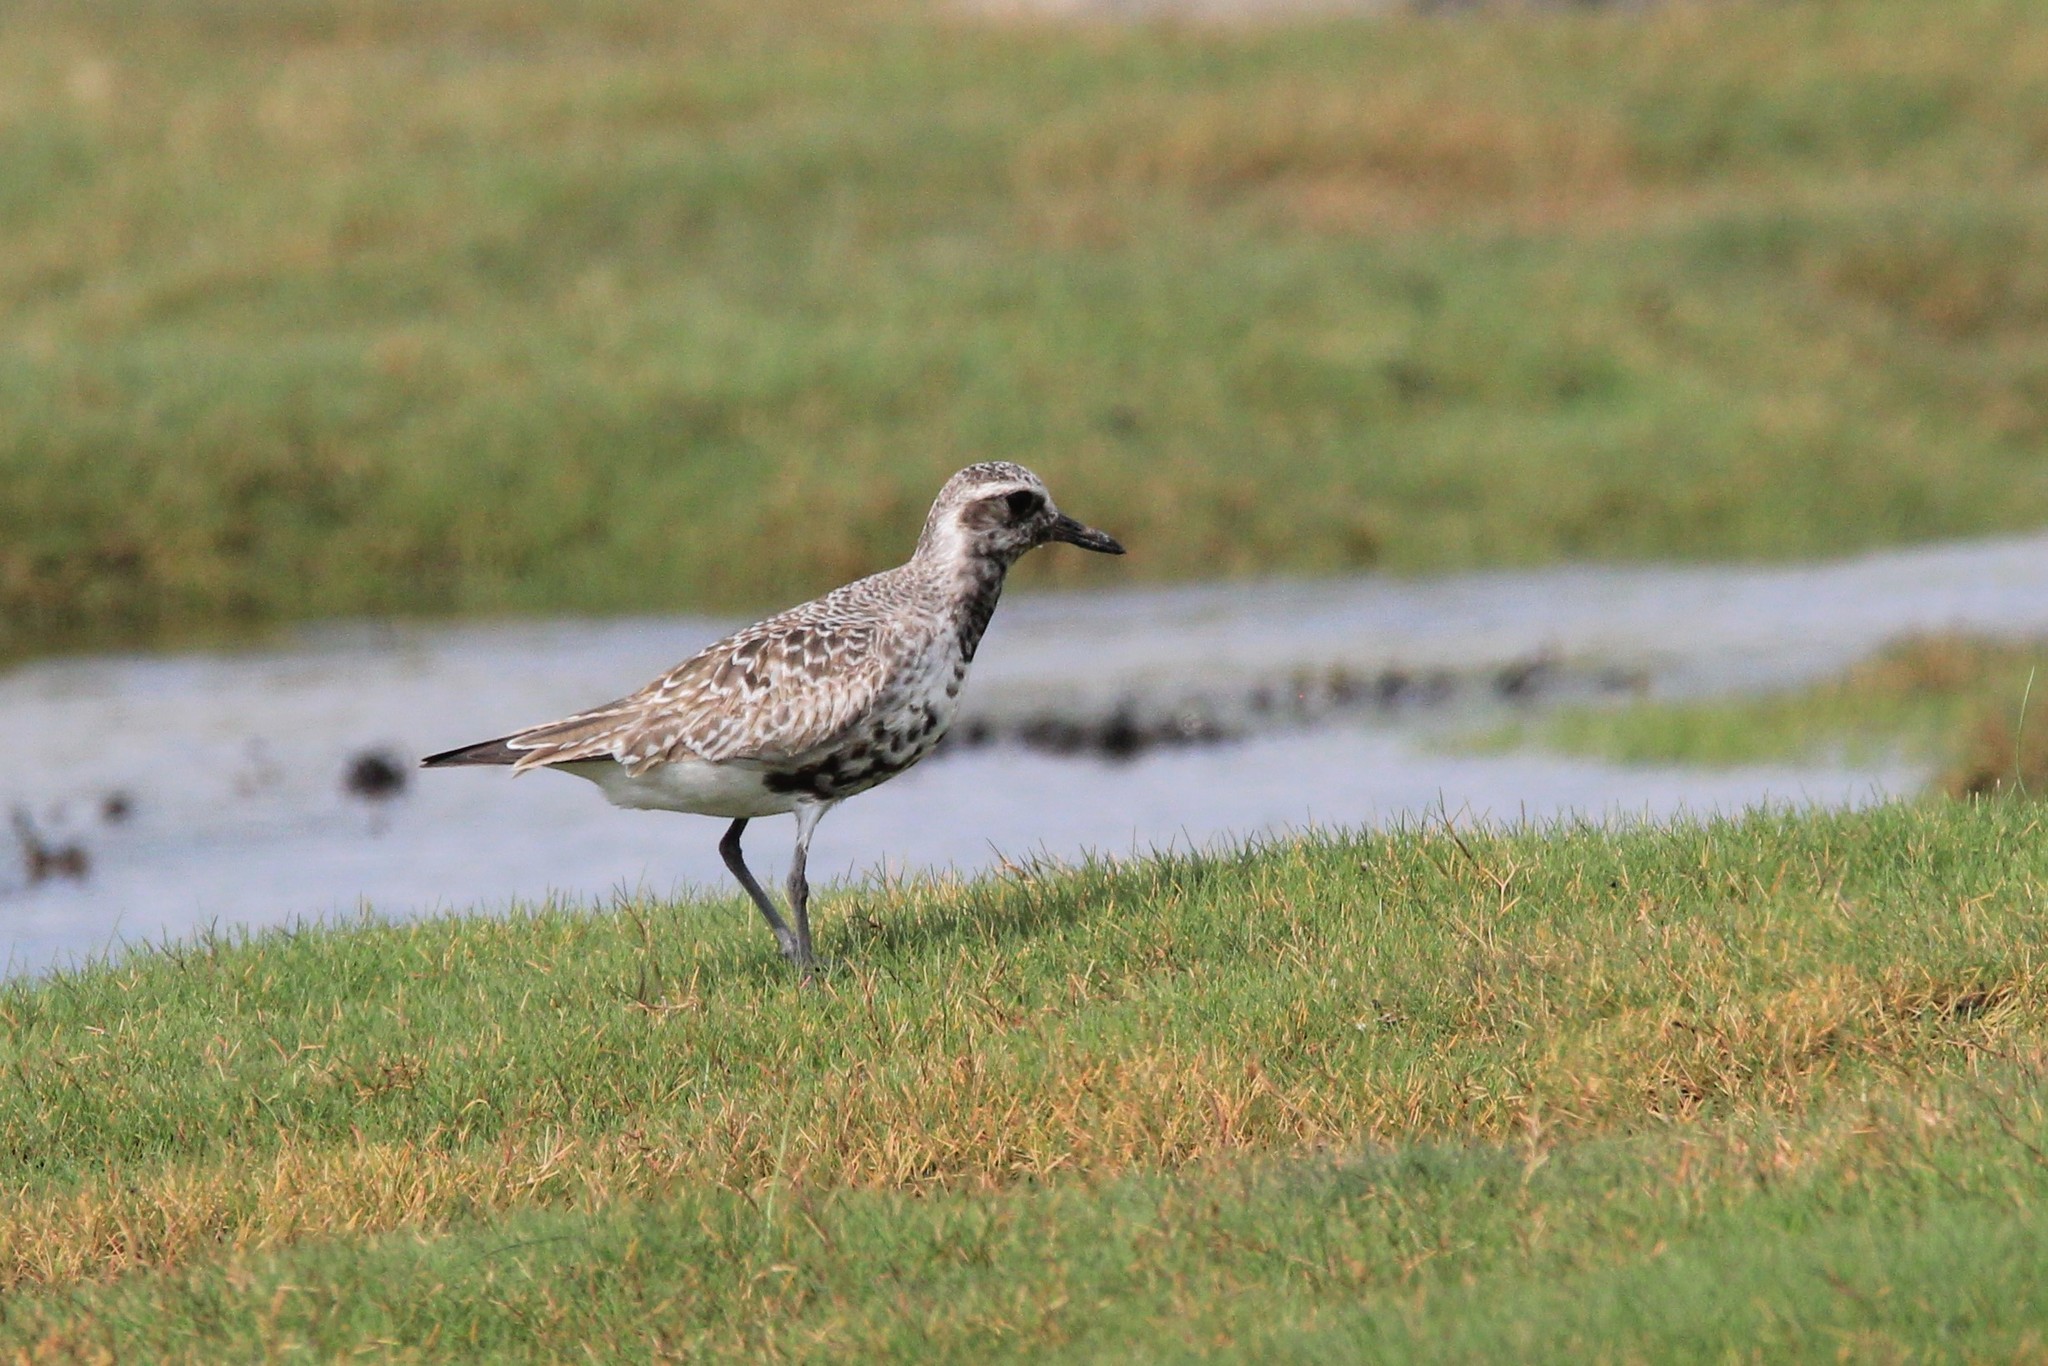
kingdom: Animalia
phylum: Chordata
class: Aves
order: Charadriiformes
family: Charadriidae
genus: Pluvialis
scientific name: Pluvialis squatarola
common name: Grey plover
